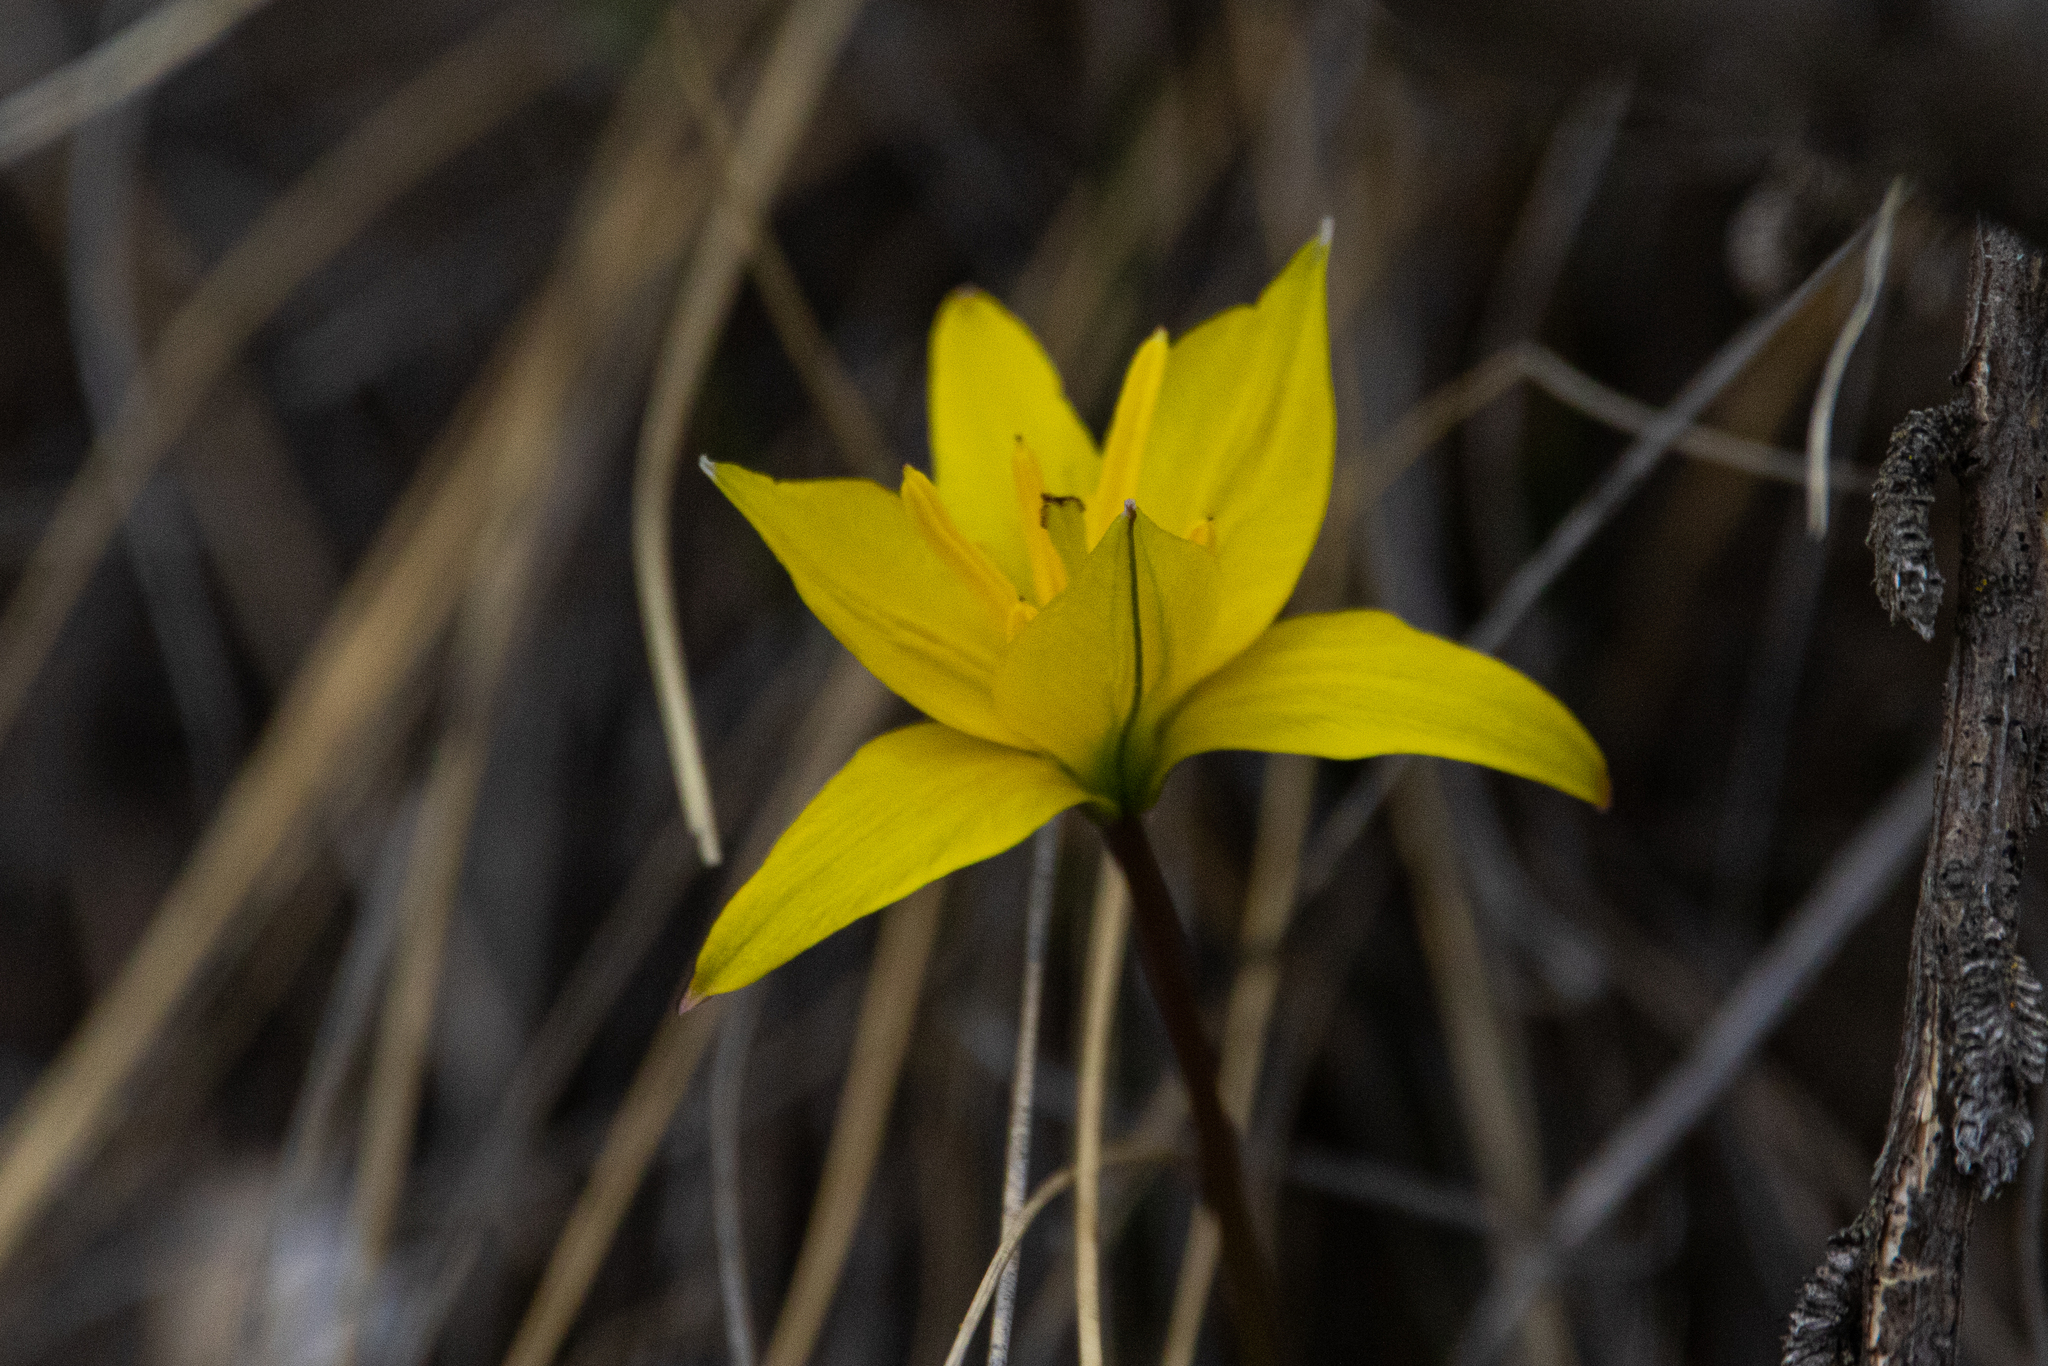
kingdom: Plantae
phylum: Tracheophyta
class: Liliopsida
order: Liliales
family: Liliaceae
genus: Tulipa
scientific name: Tulipa uniflora
